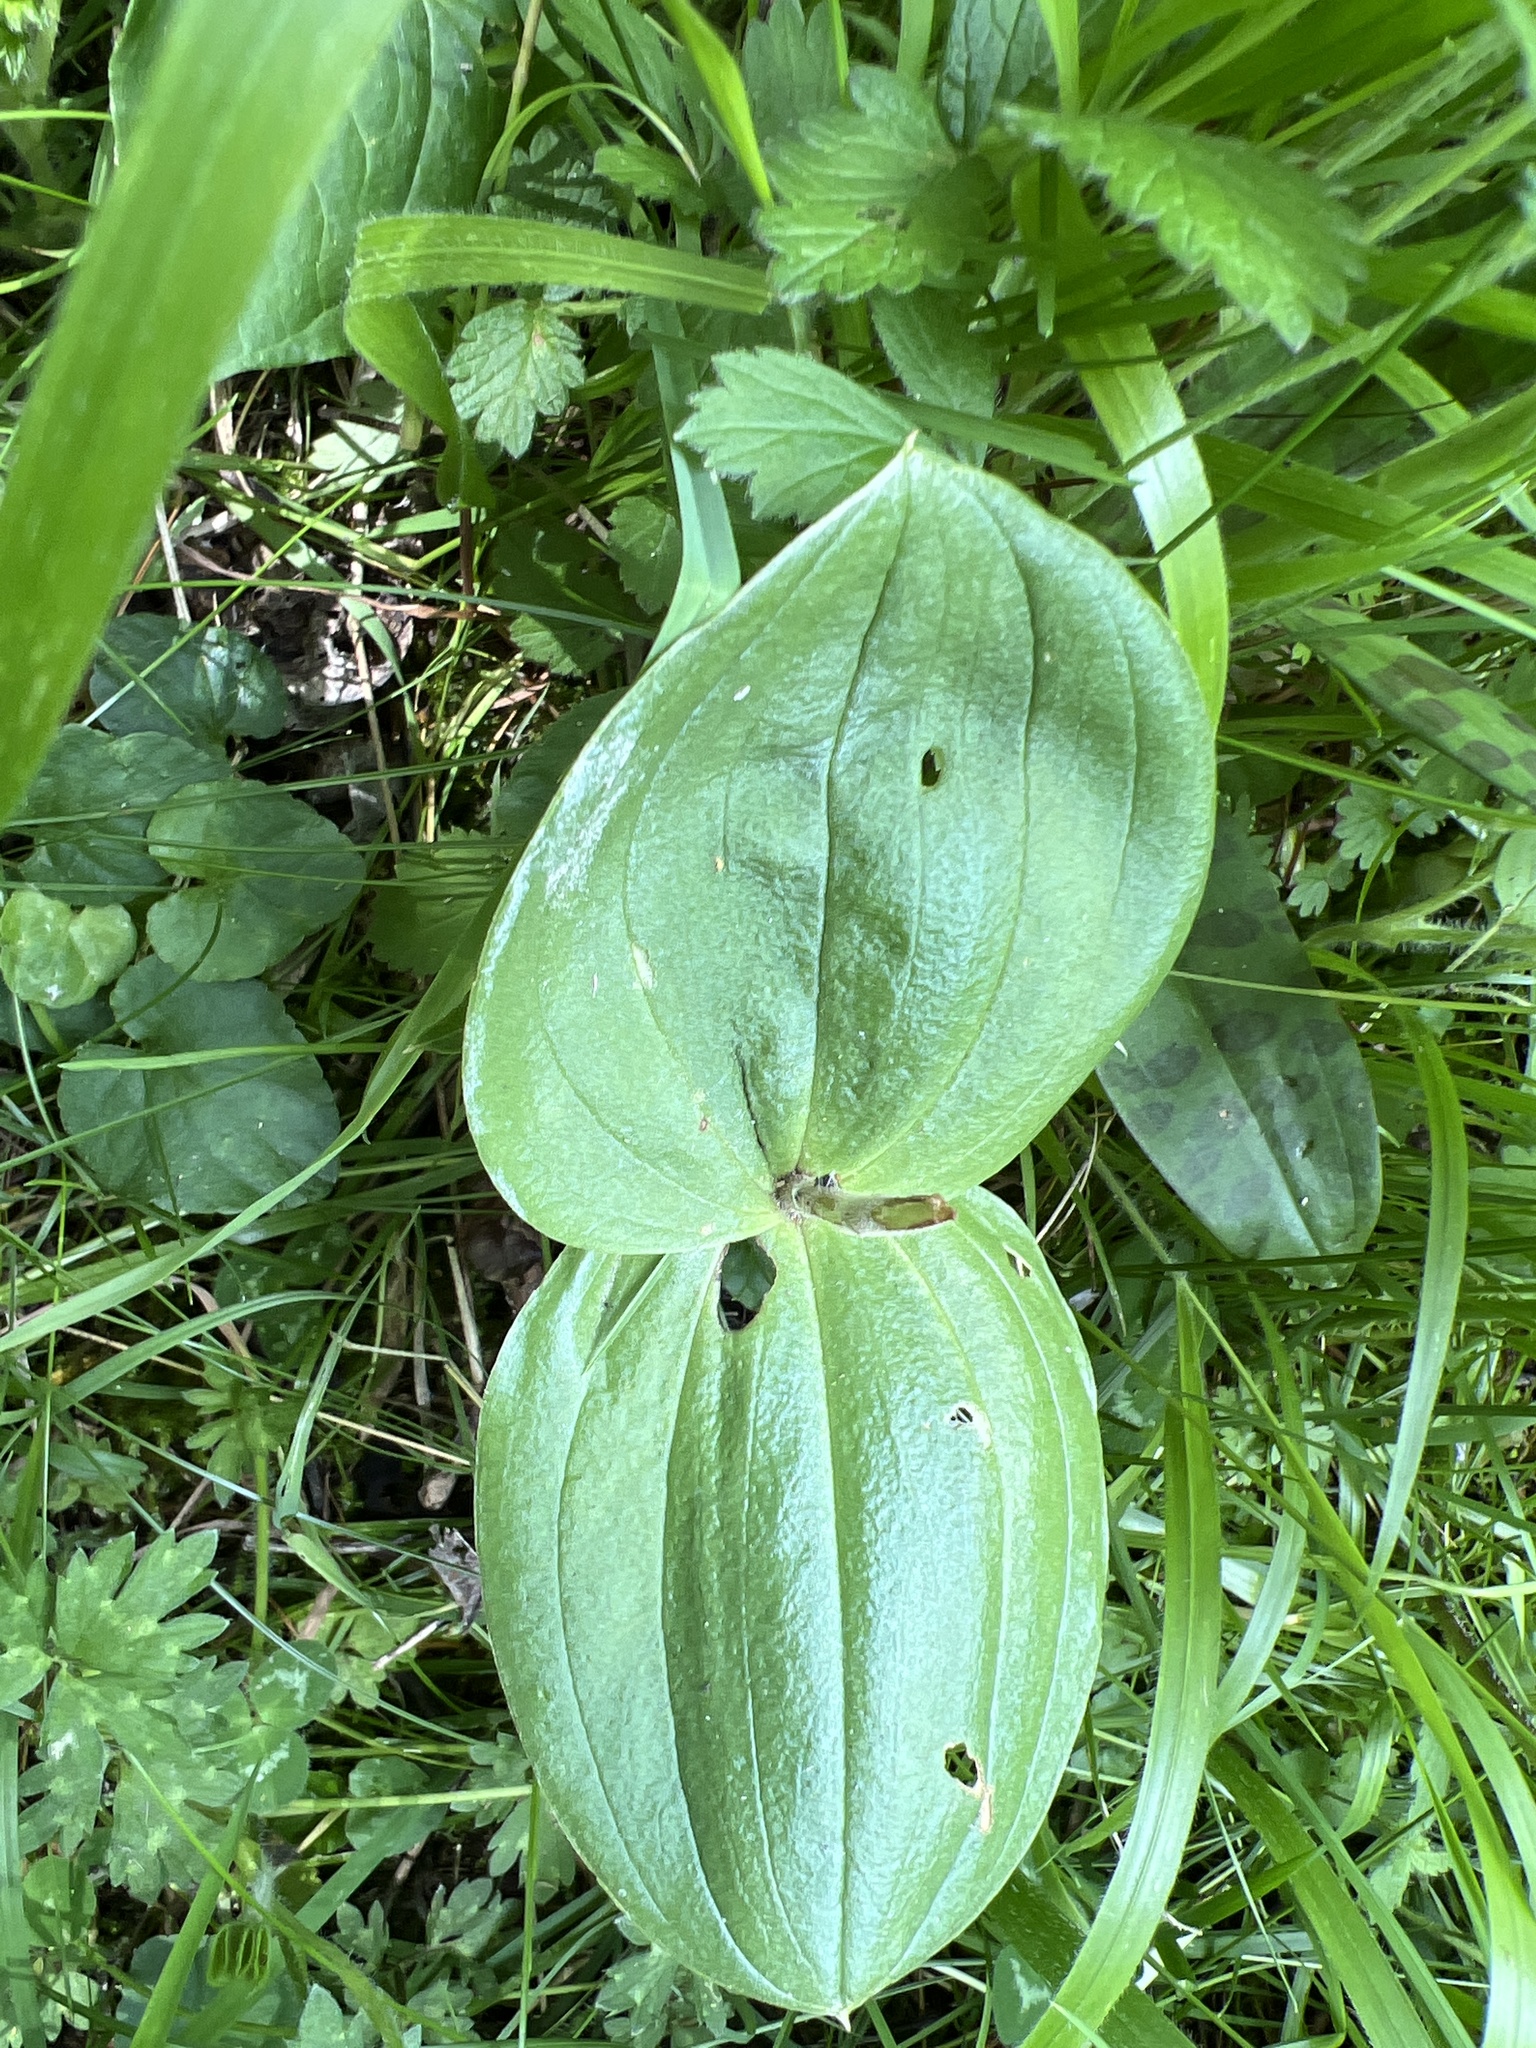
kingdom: Plantae
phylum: Tracheophyta
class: Liliopsida
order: Asparagales
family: Orchidaceae
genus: Neottia
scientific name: Neottia ovata
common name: Common twayblade
